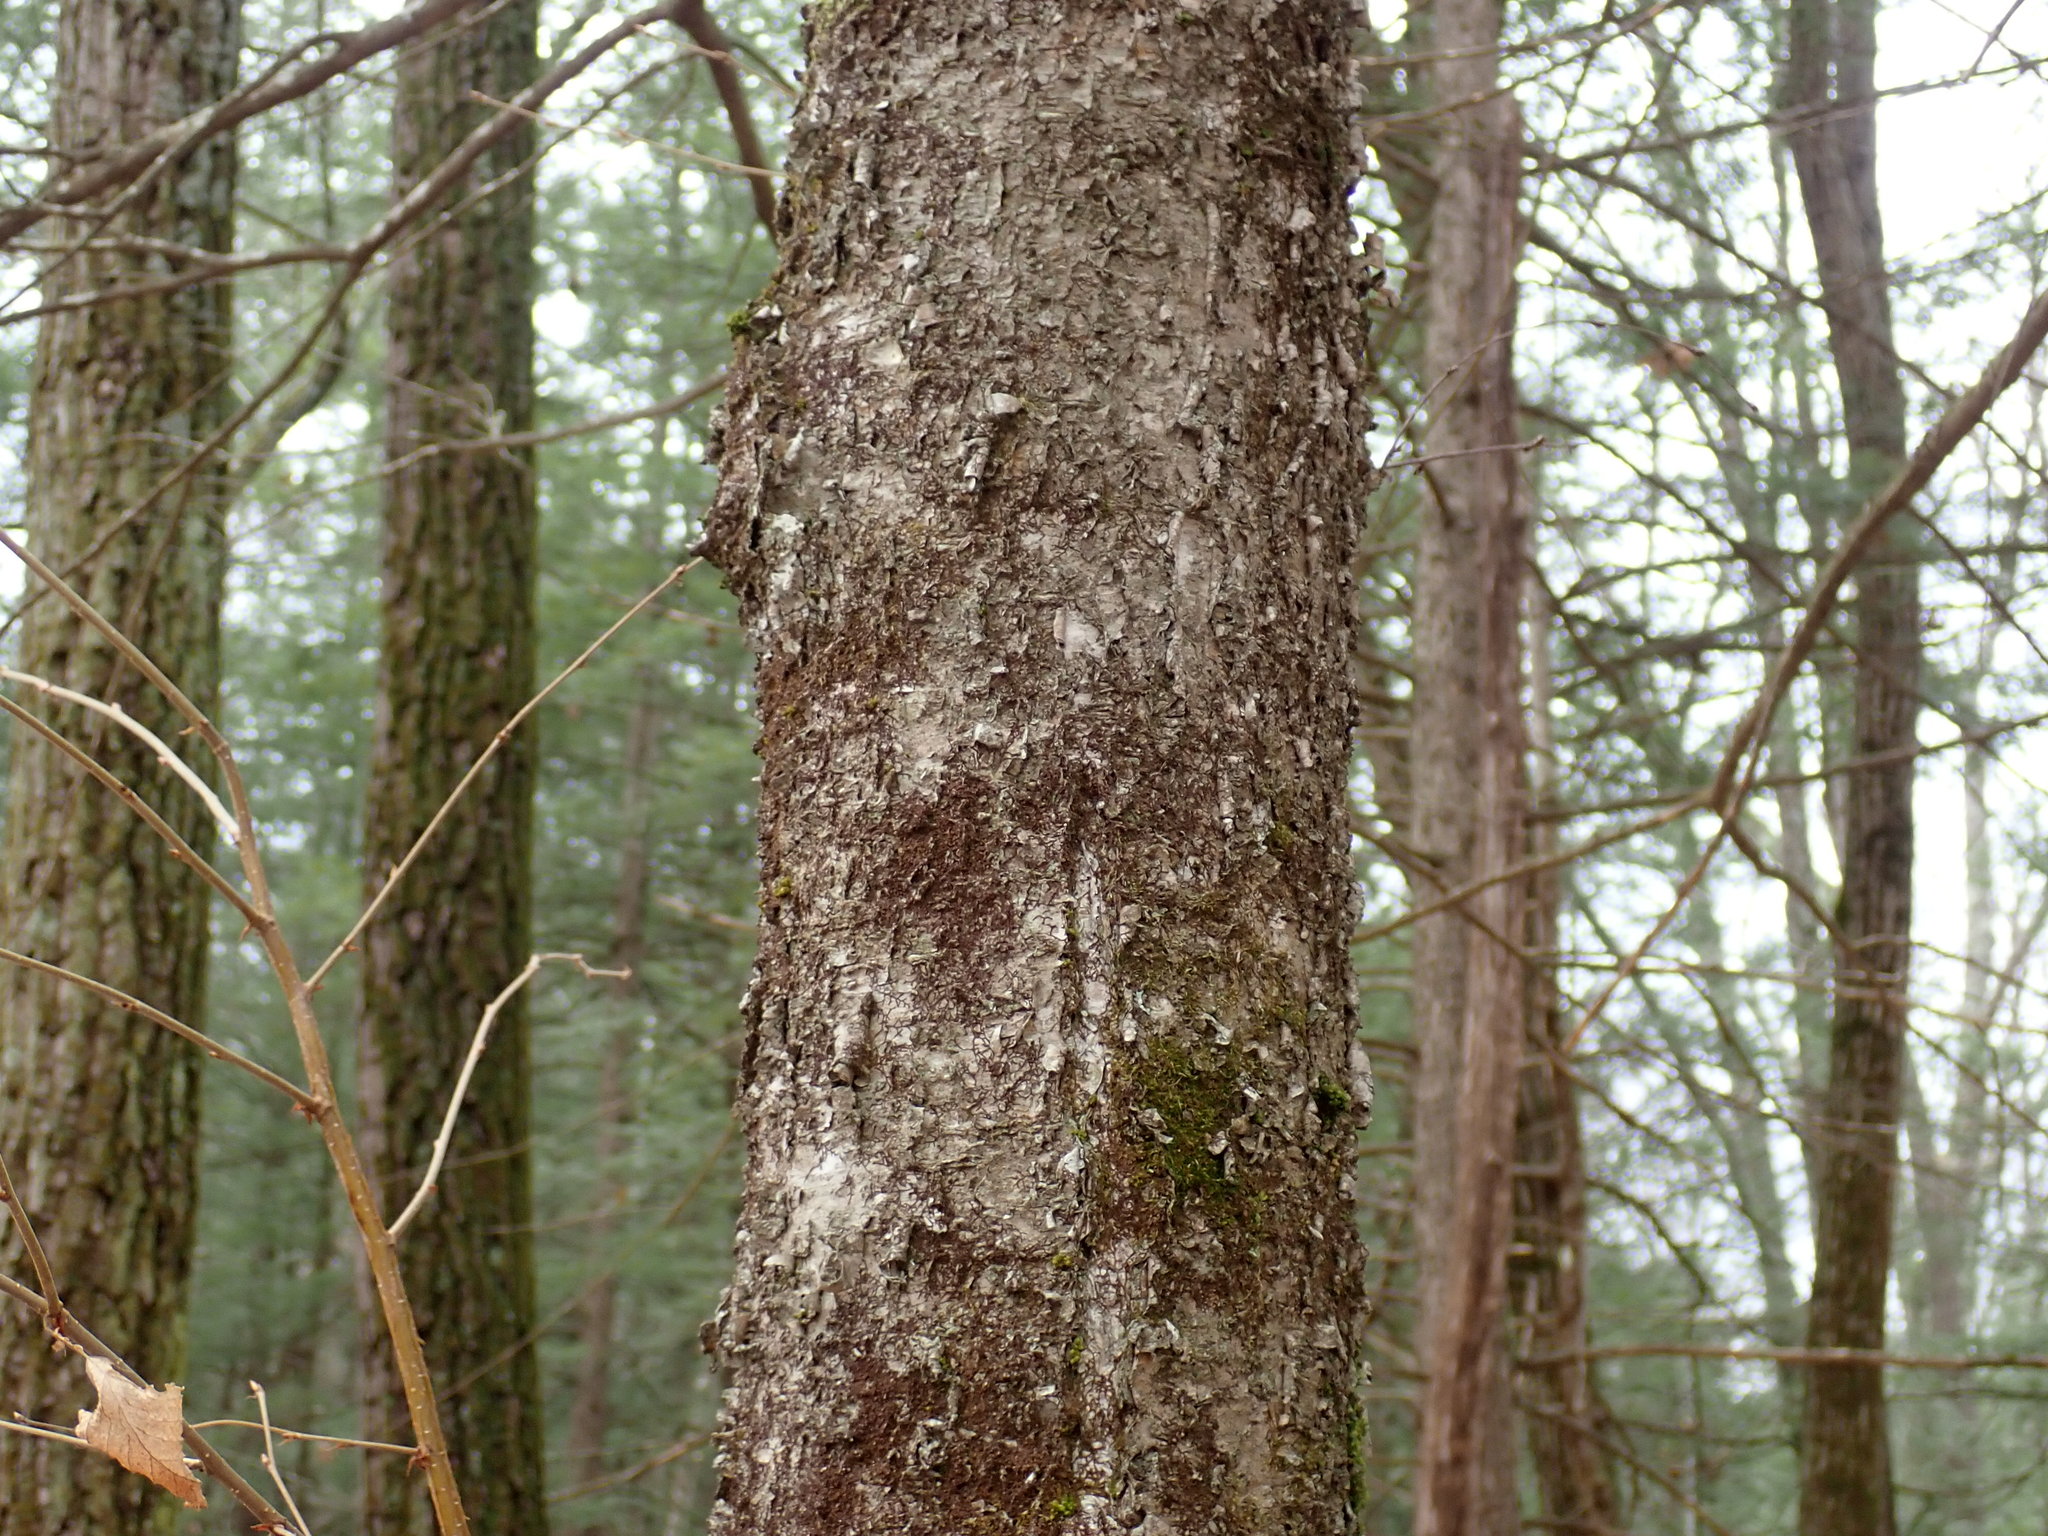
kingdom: Plantae
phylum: Tracheophyta
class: Magnoliopsida
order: Fagales
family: Betulaceae
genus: Betula
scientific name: Betula alleghaniensis
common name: Yellow birch
